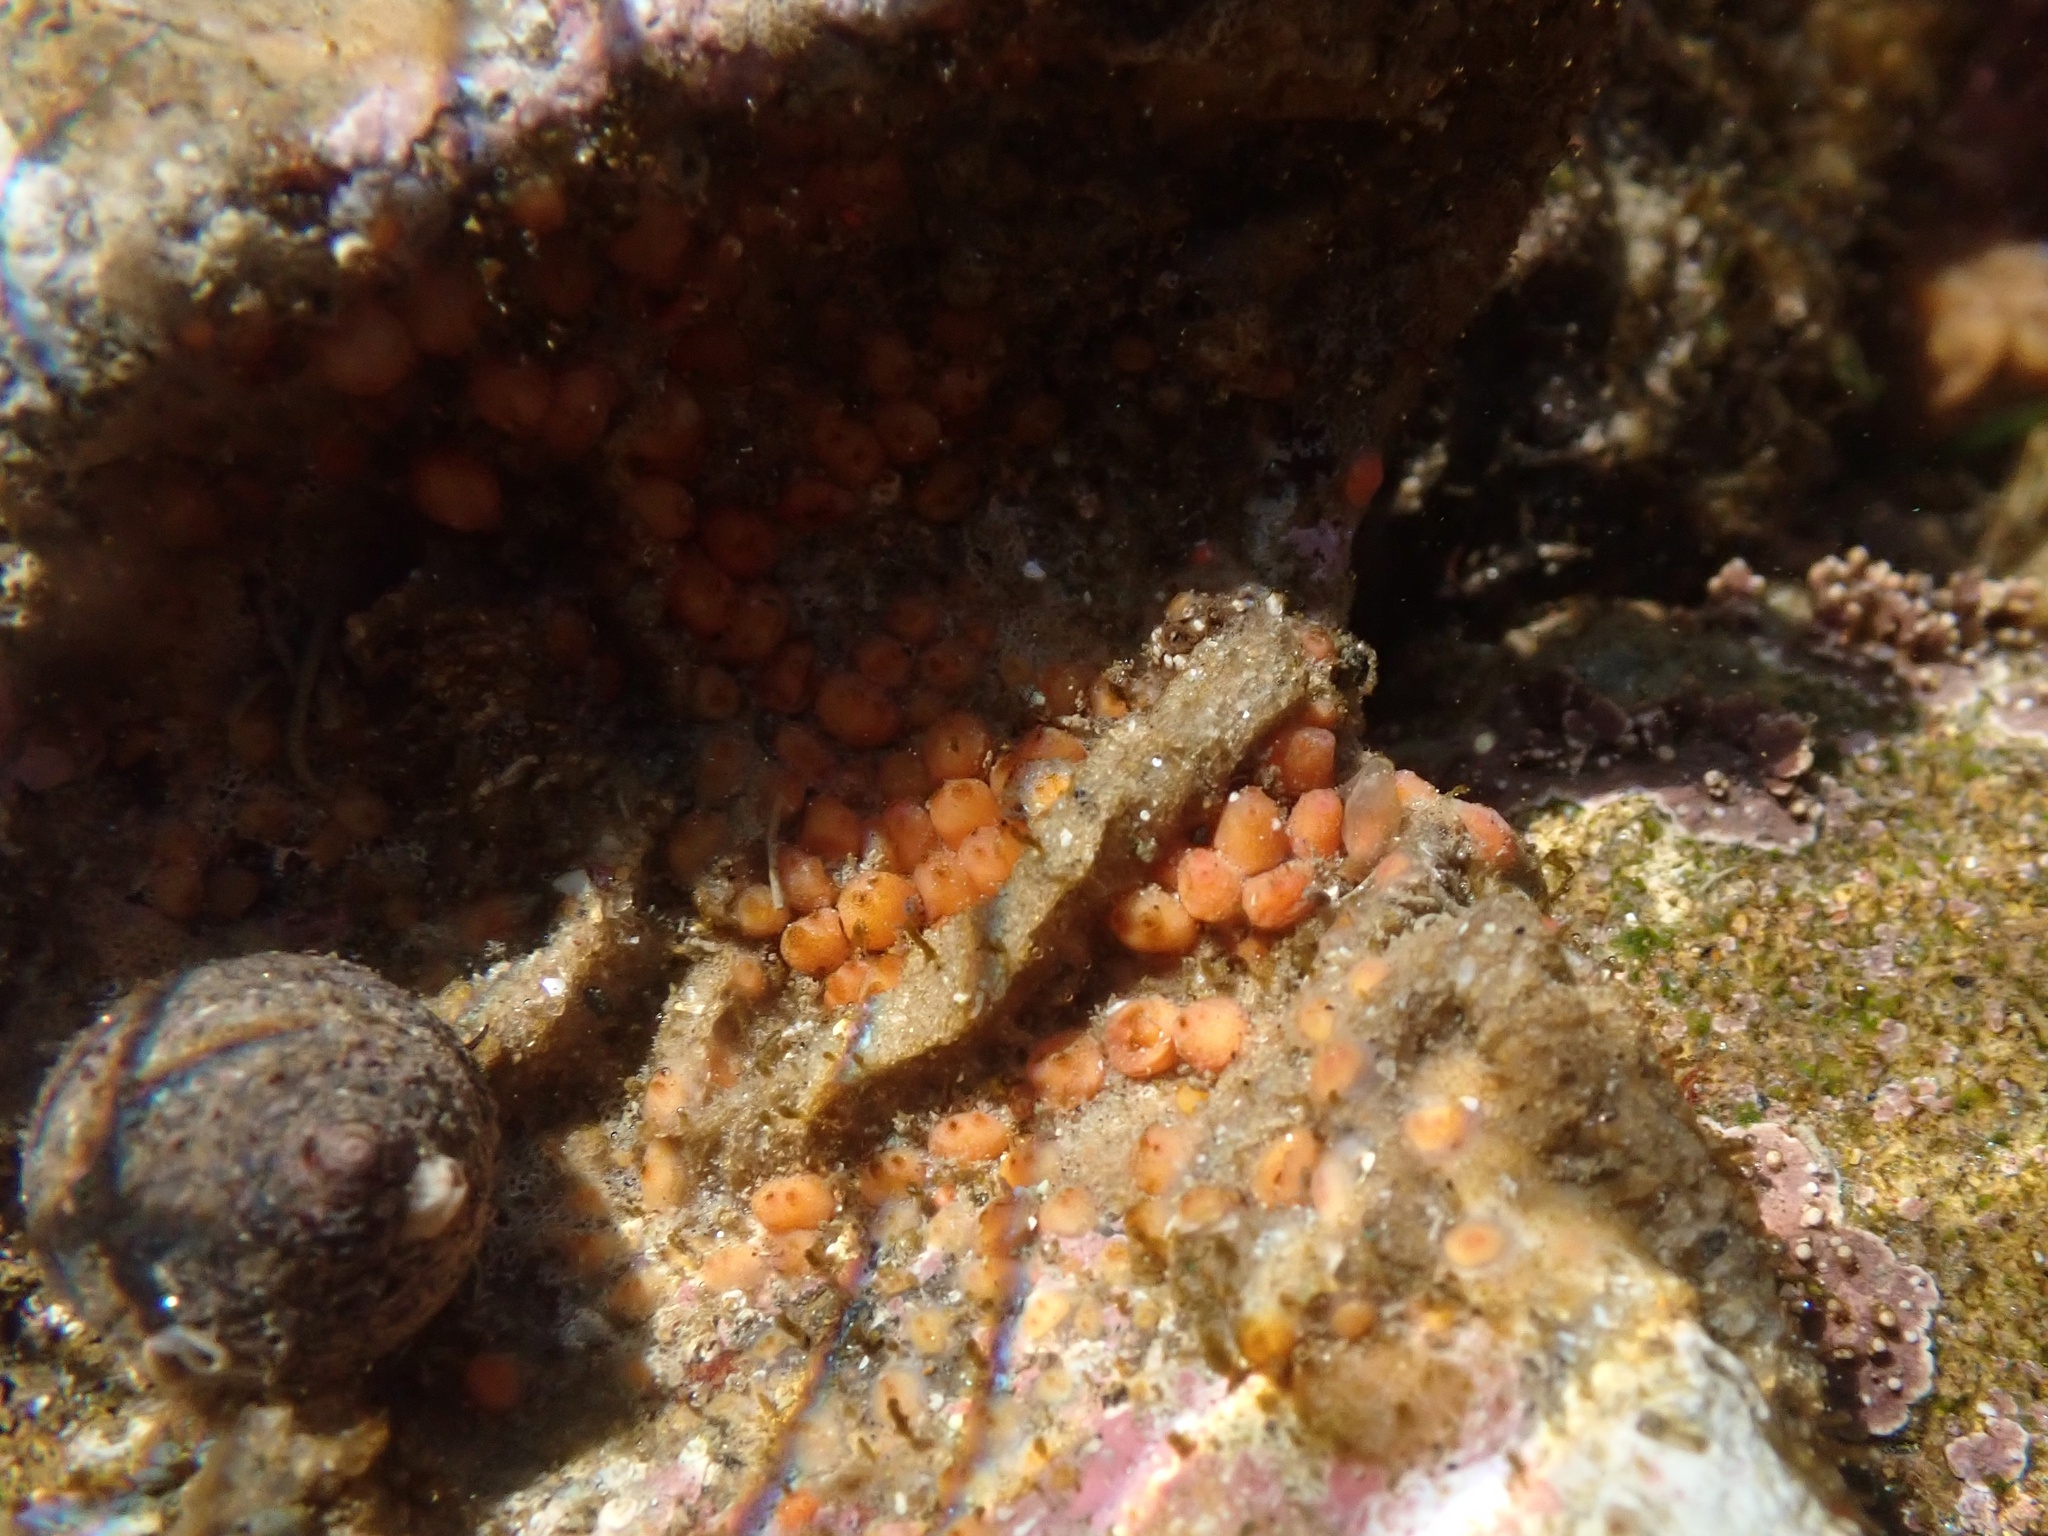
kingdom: Animalia
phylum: Chordata
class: Ascidiacea
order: Stolidobranchia
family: Styelidae
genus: Metandrocarpa
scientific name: Metandrocarpa taylori
